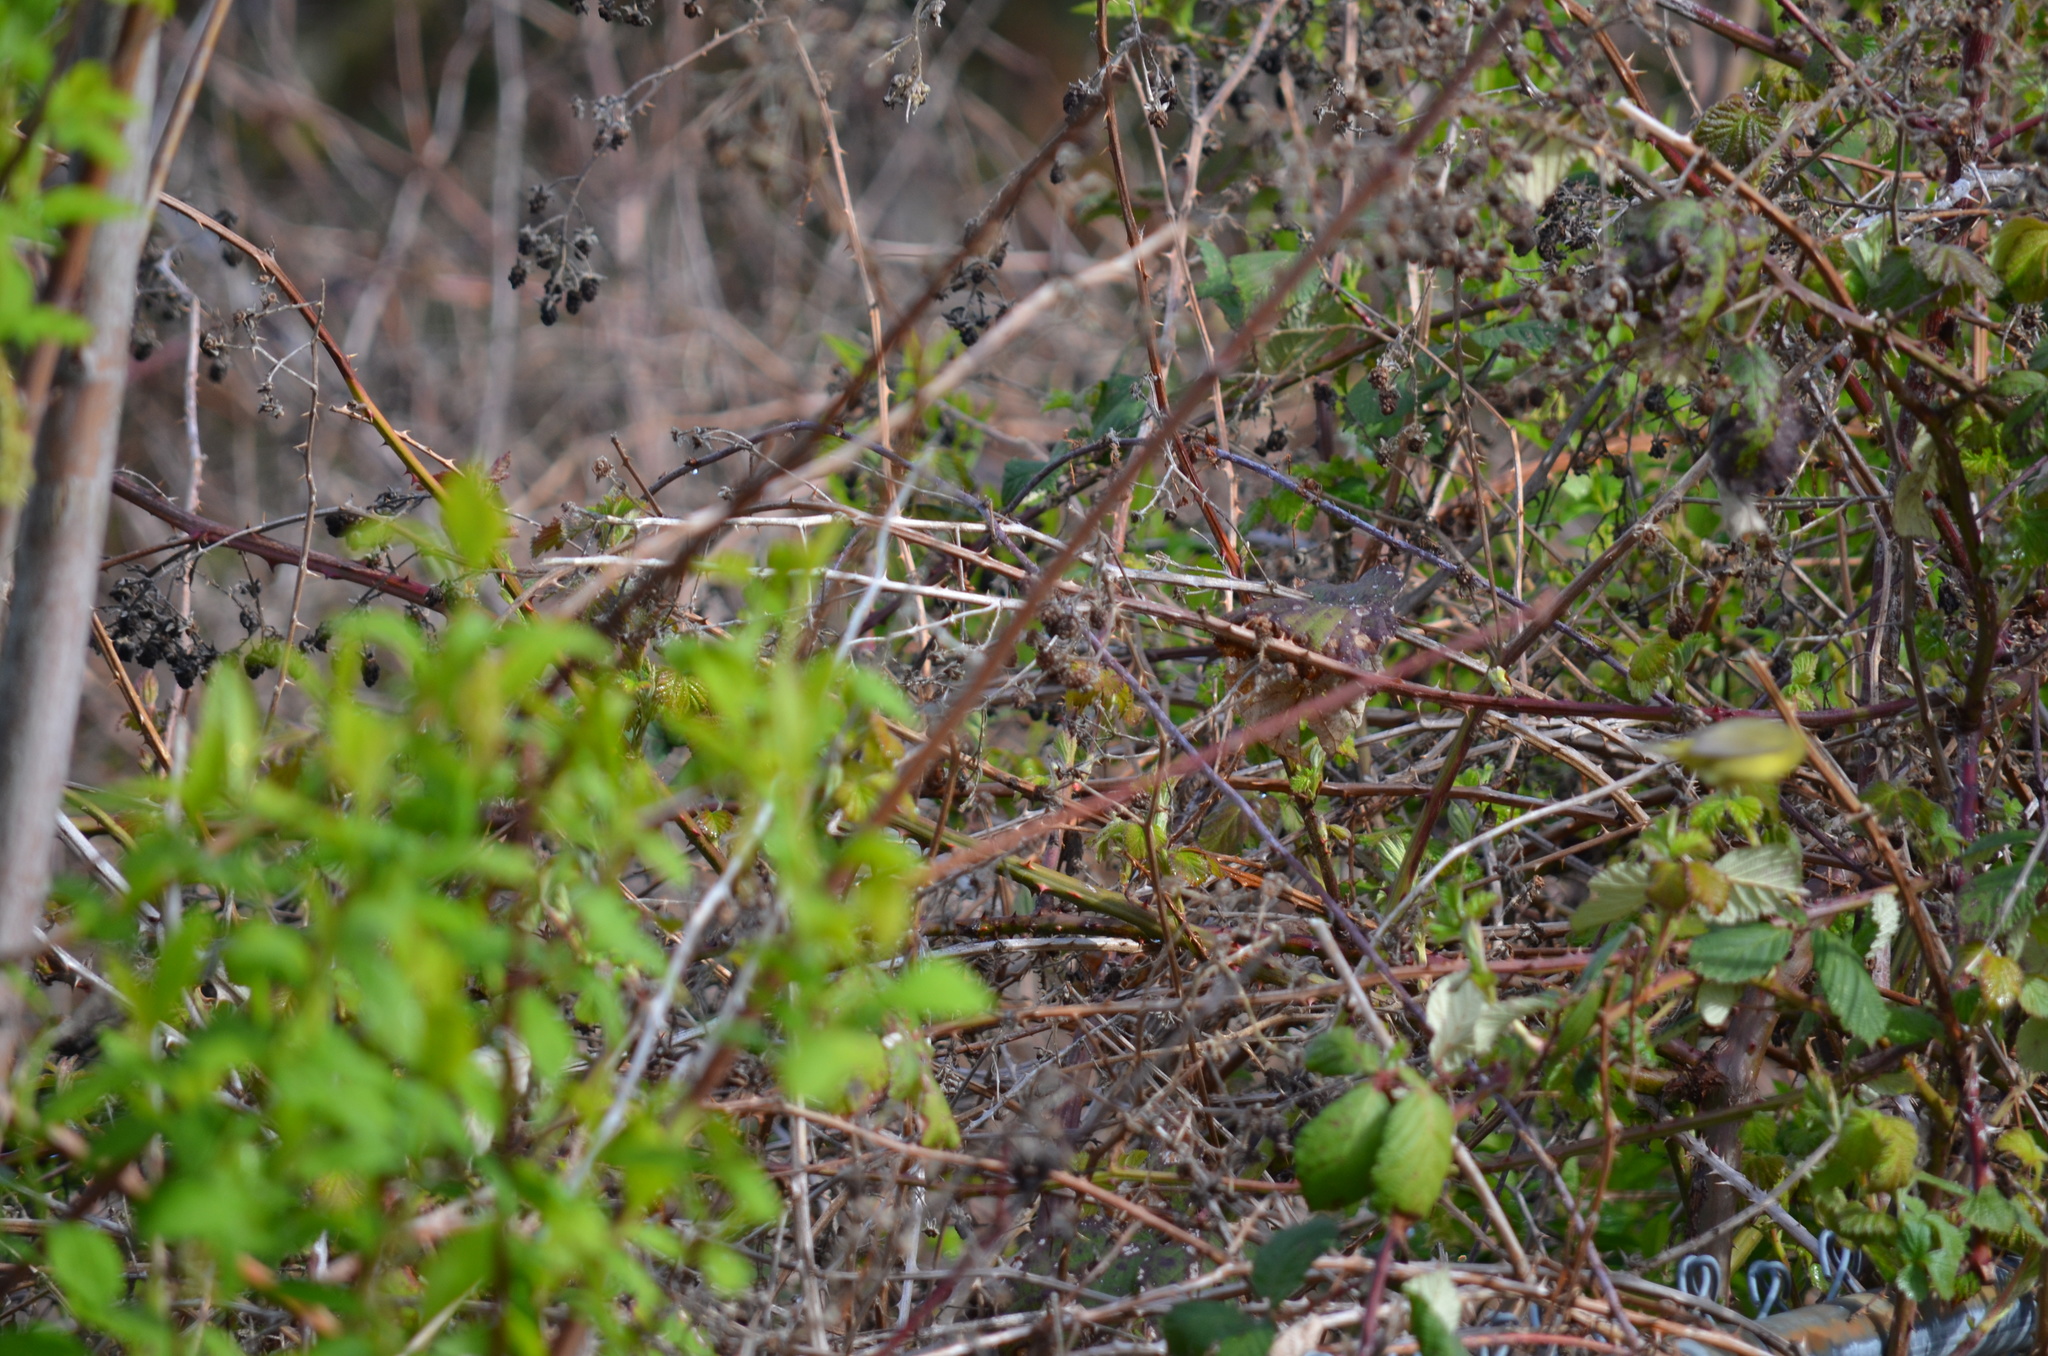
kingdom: Animalia
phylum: Chordata
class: Aves
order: Passeriformes
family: Parulidae
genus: Leiothlypis
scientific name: Leiothlypis celata
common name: Orange-crowned warbler
